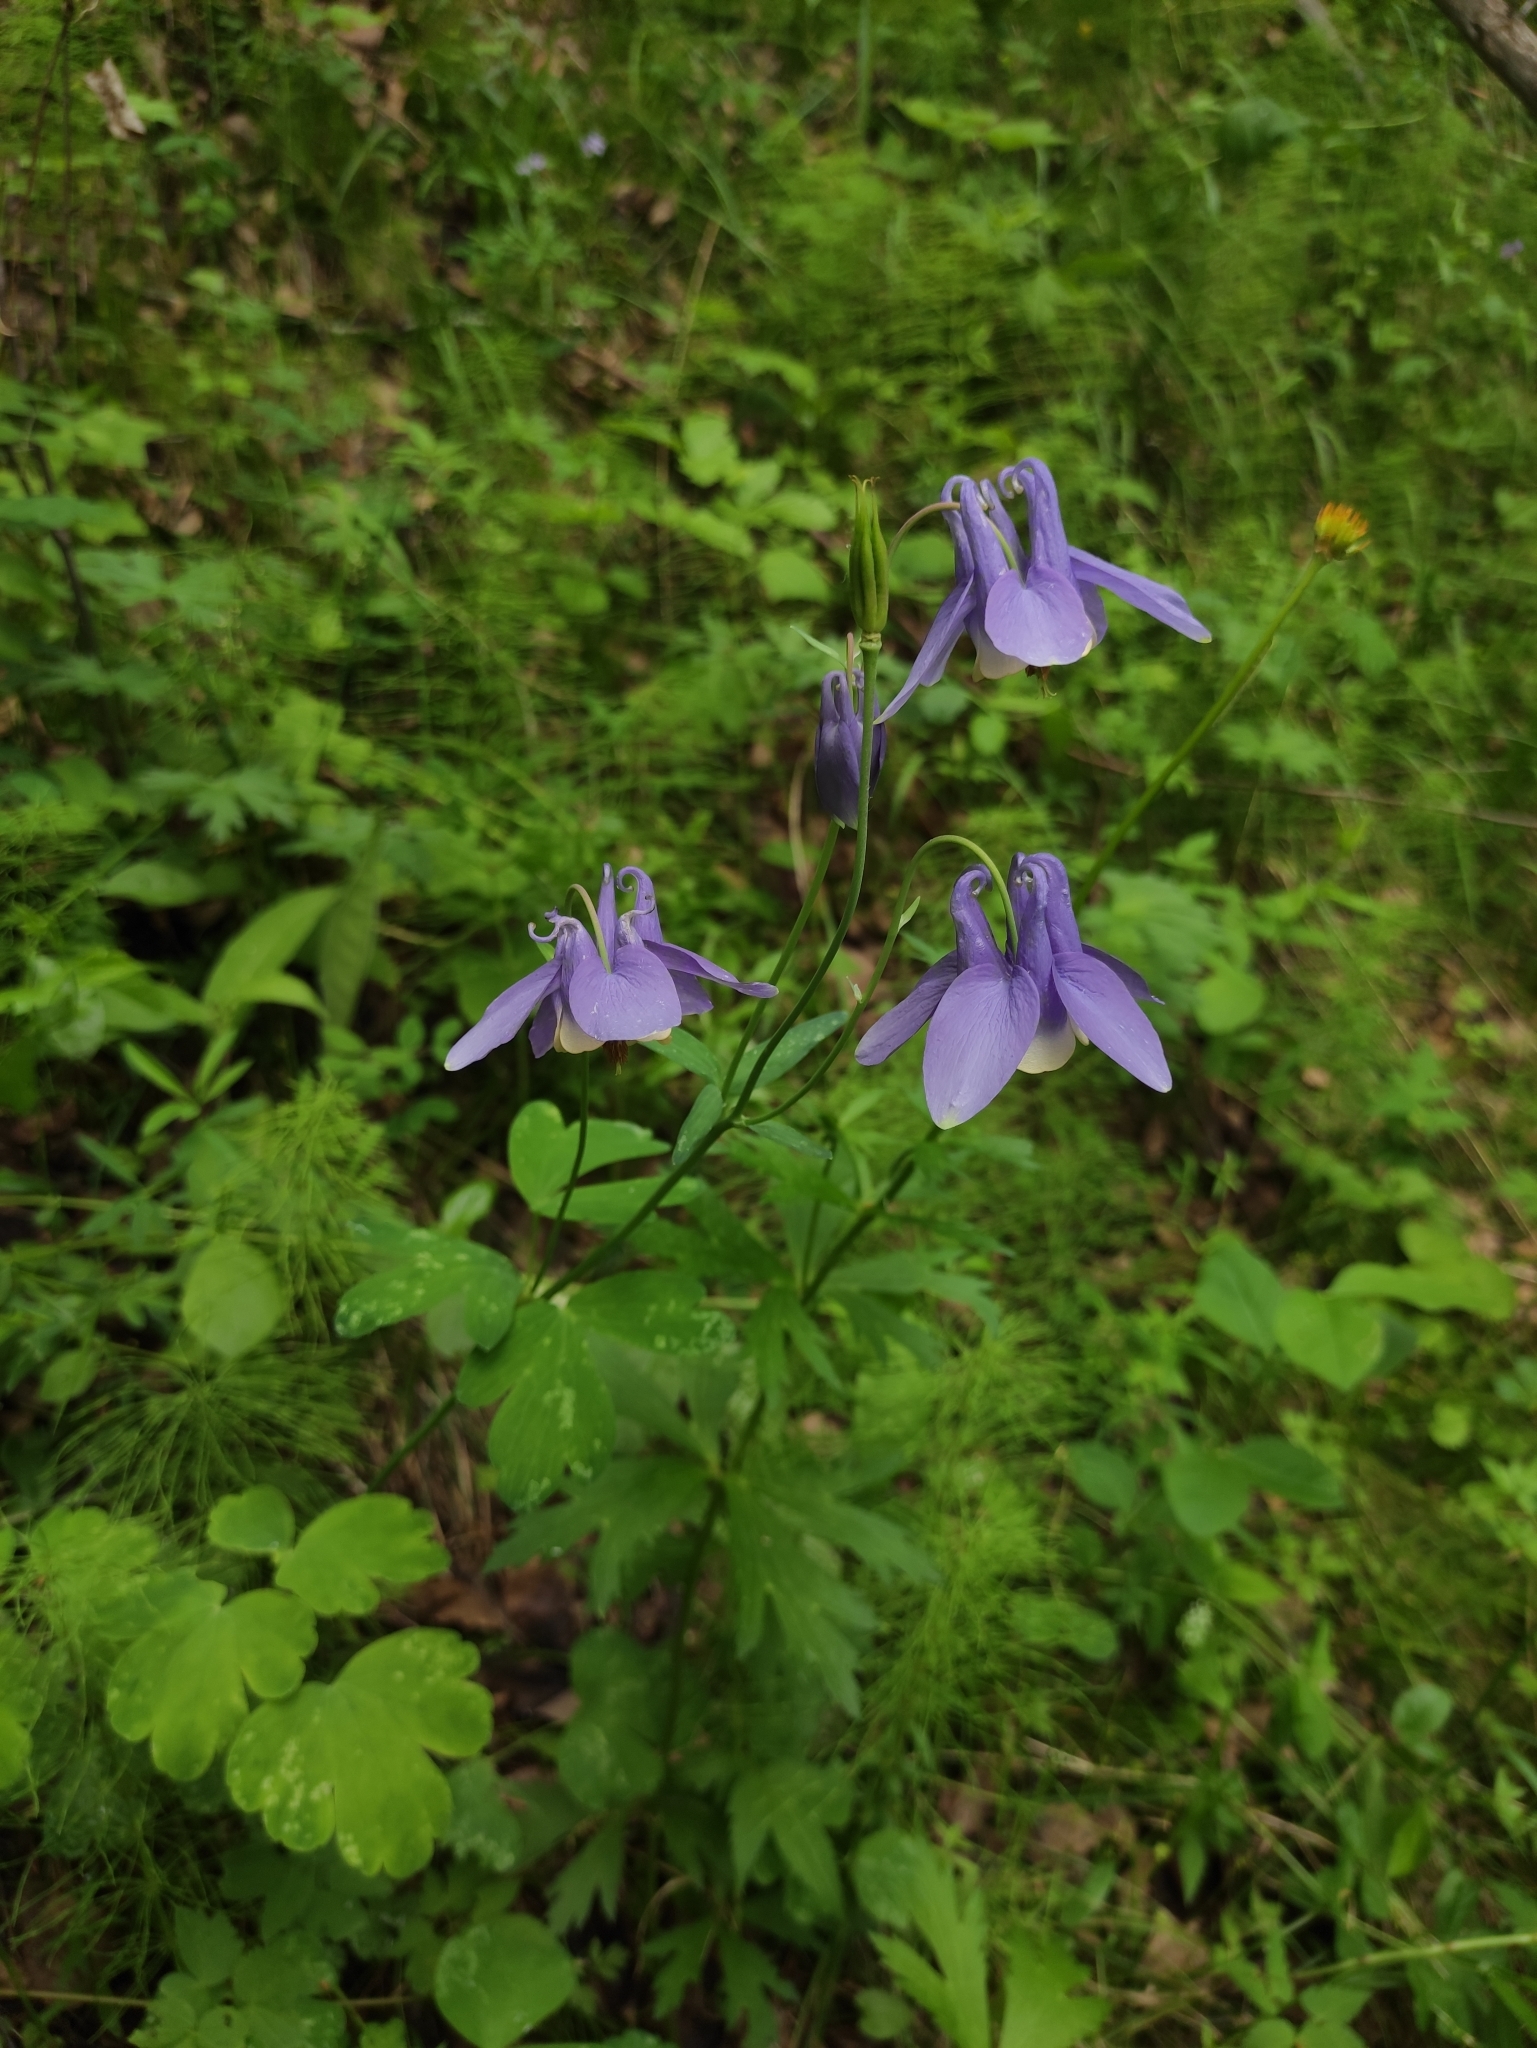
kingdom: Plantae
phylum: Tracheophyta
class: Magnoliopsida
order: Ranunculales
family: Ranunculaceae
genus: Aquilegia
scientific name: Aquilegia sibirica
